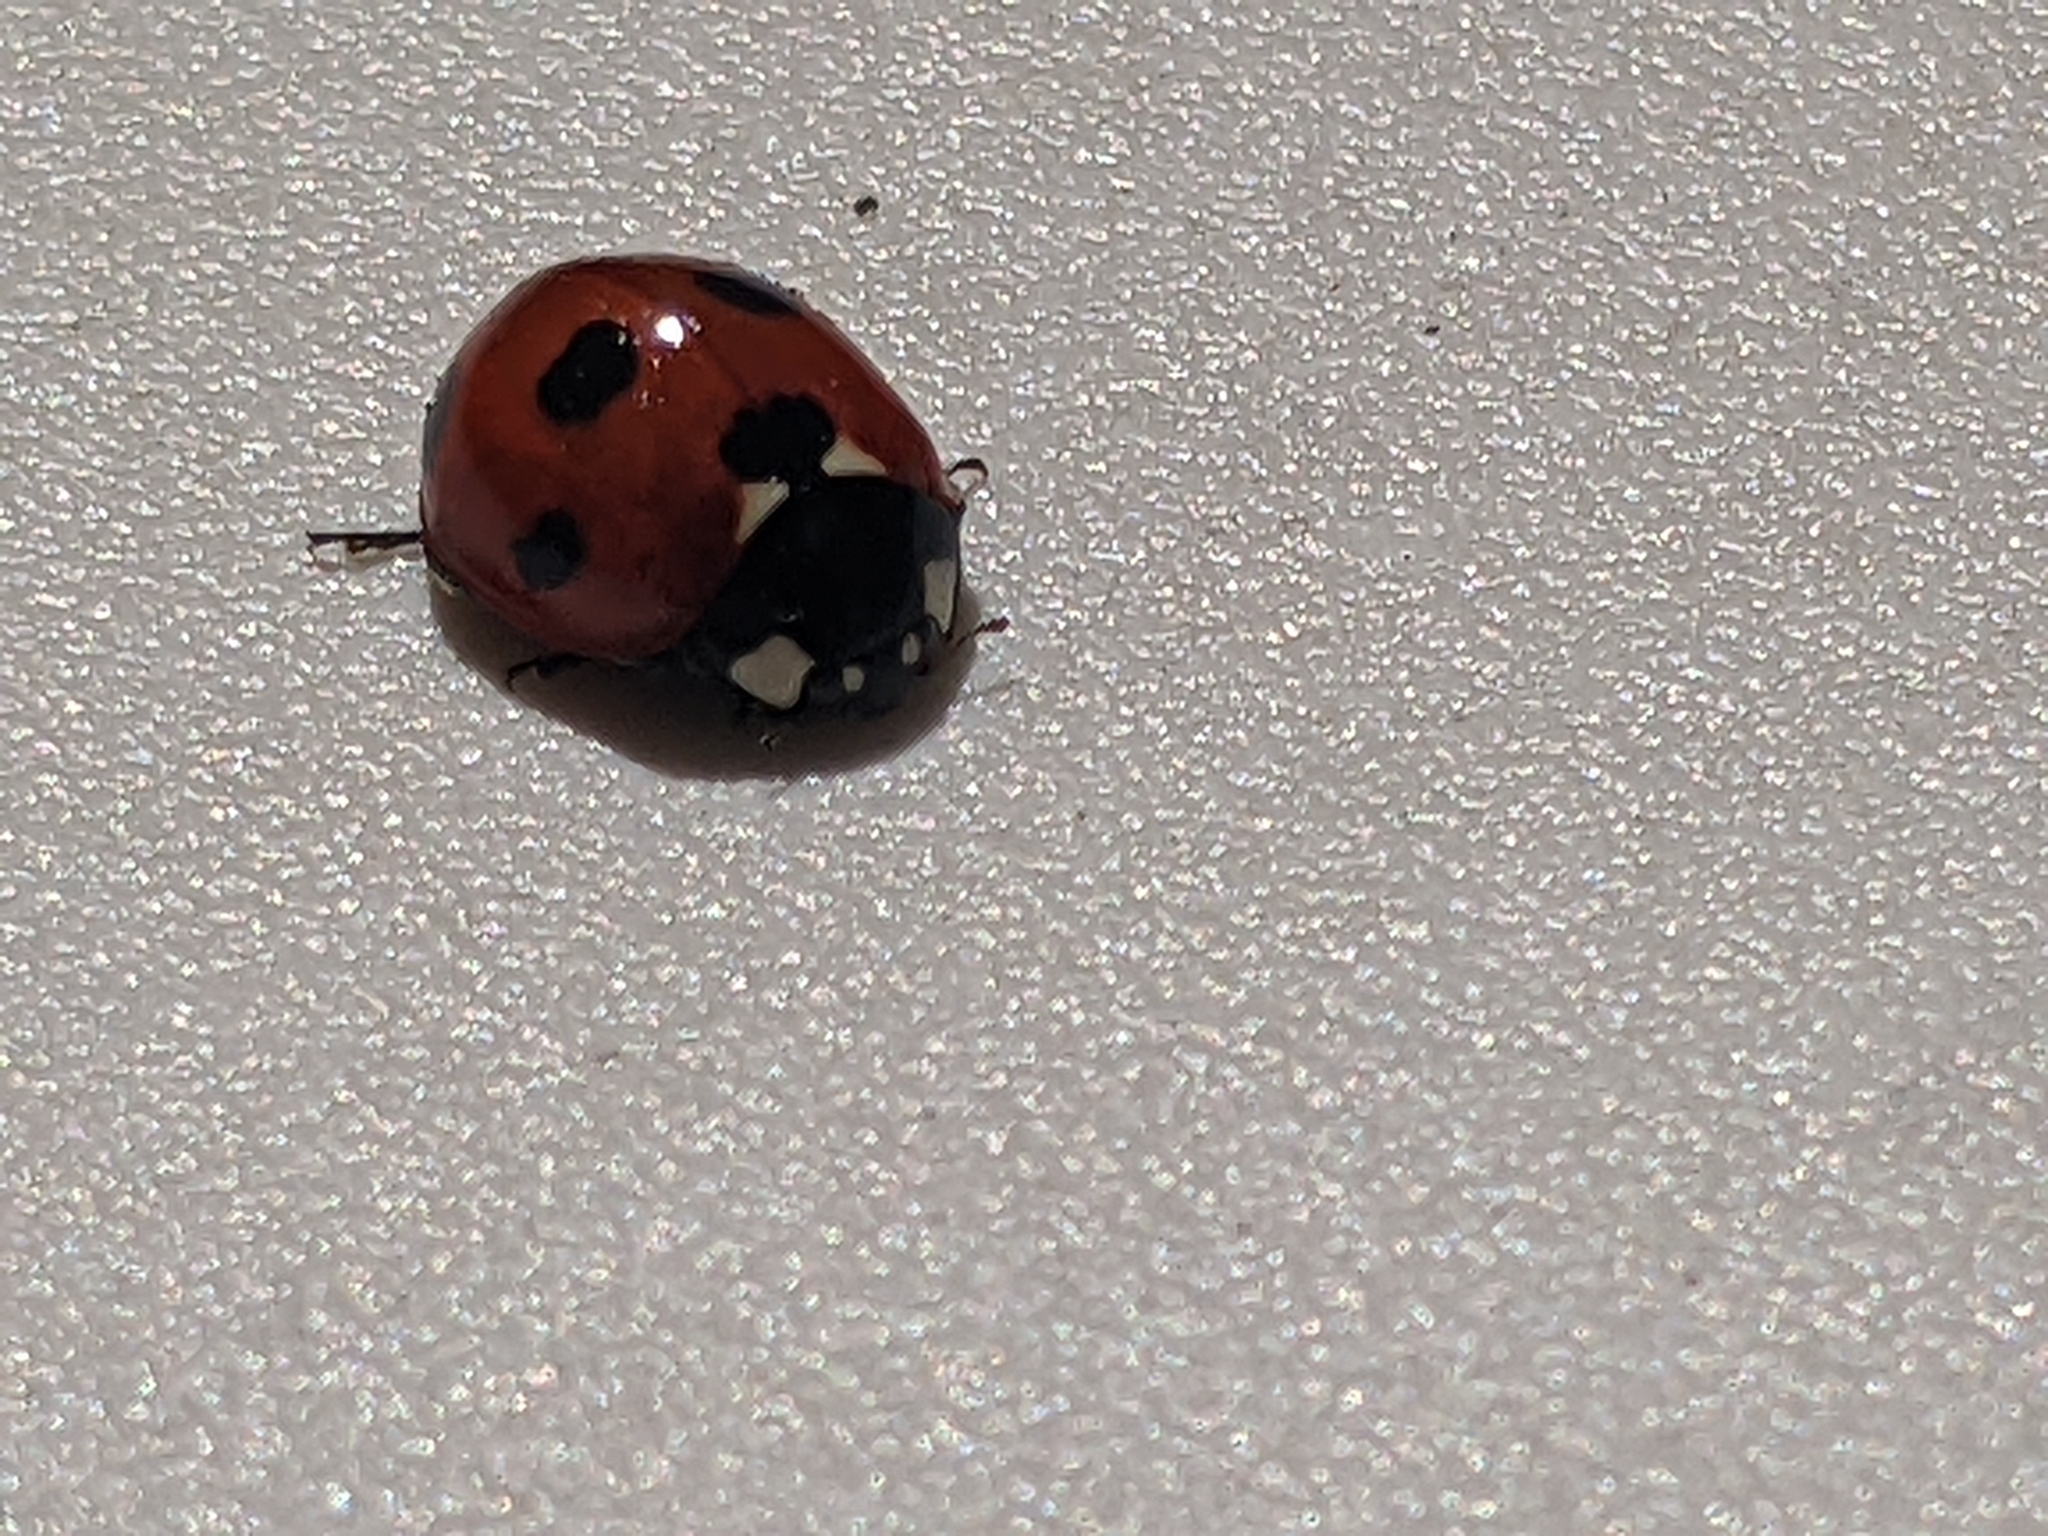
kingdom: Animalia
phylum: Arthropoda
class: Insecta
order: Coleoptera
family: Coccinellidae
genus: Coccinella
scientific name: Coccinella septempunctata
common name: Sevenspotted lady beetle
